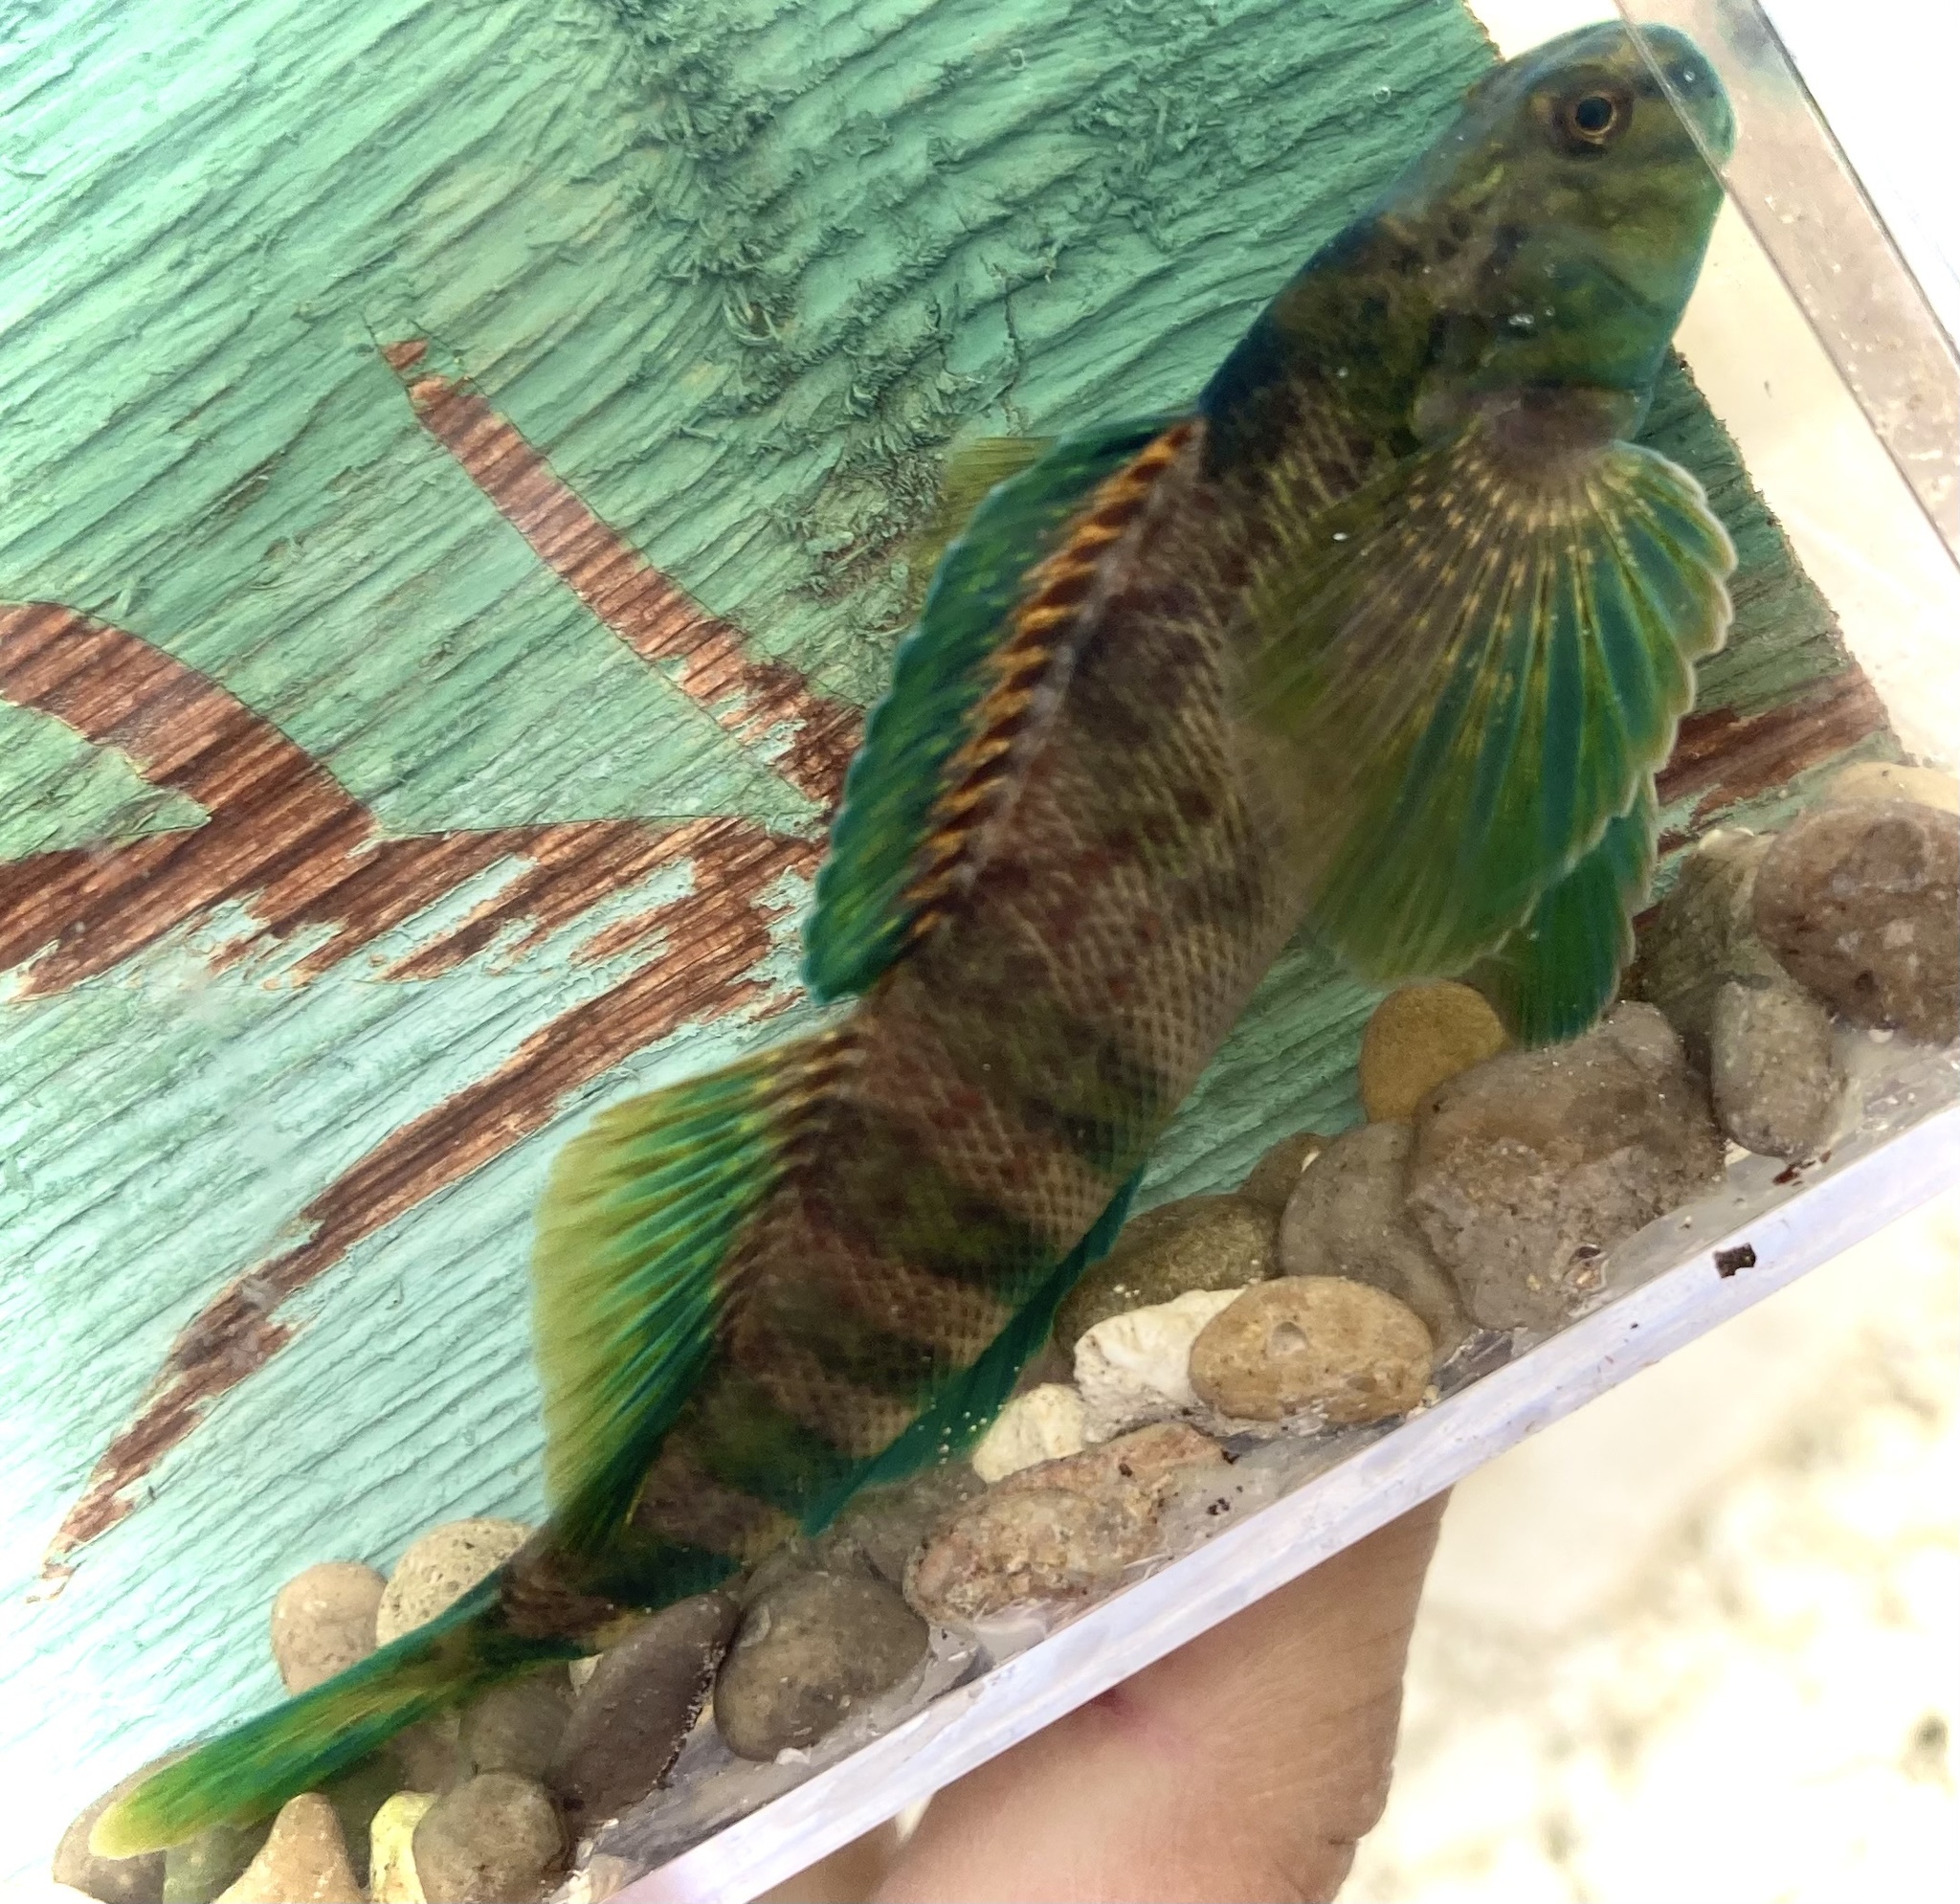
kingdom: Animalia
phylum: Chordata
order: Perciformes
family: Percidae
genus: Etheostoma
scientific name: Etheostoma blennioides
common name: Greenside darter
